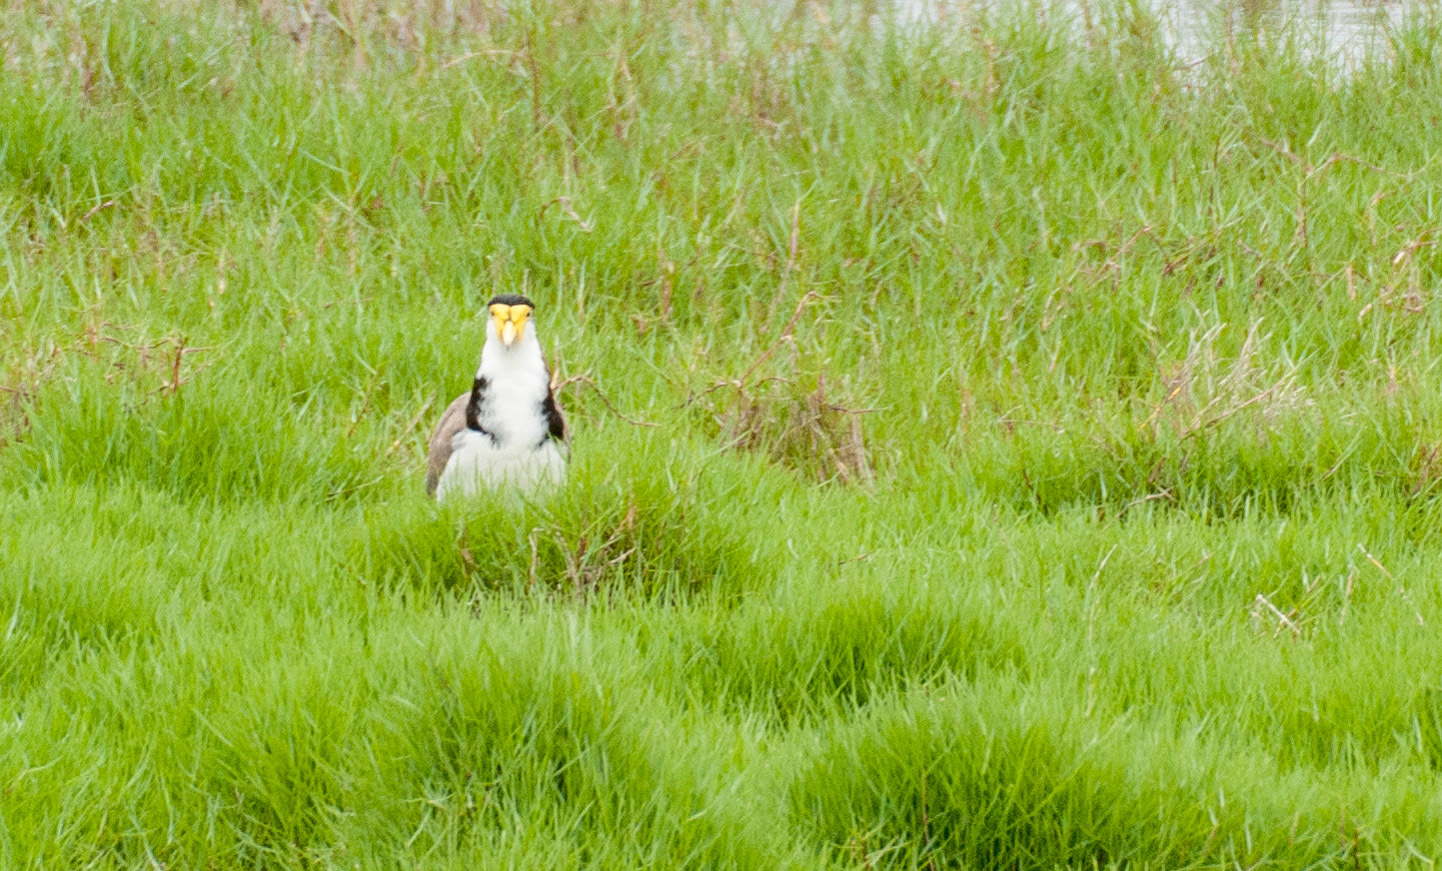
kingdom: Animalia
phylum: Chordata
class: Aves
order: Charadriiformes
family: Charadriidae
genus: Vanellus
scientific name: Vanellus miles
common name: Masked lapwing
